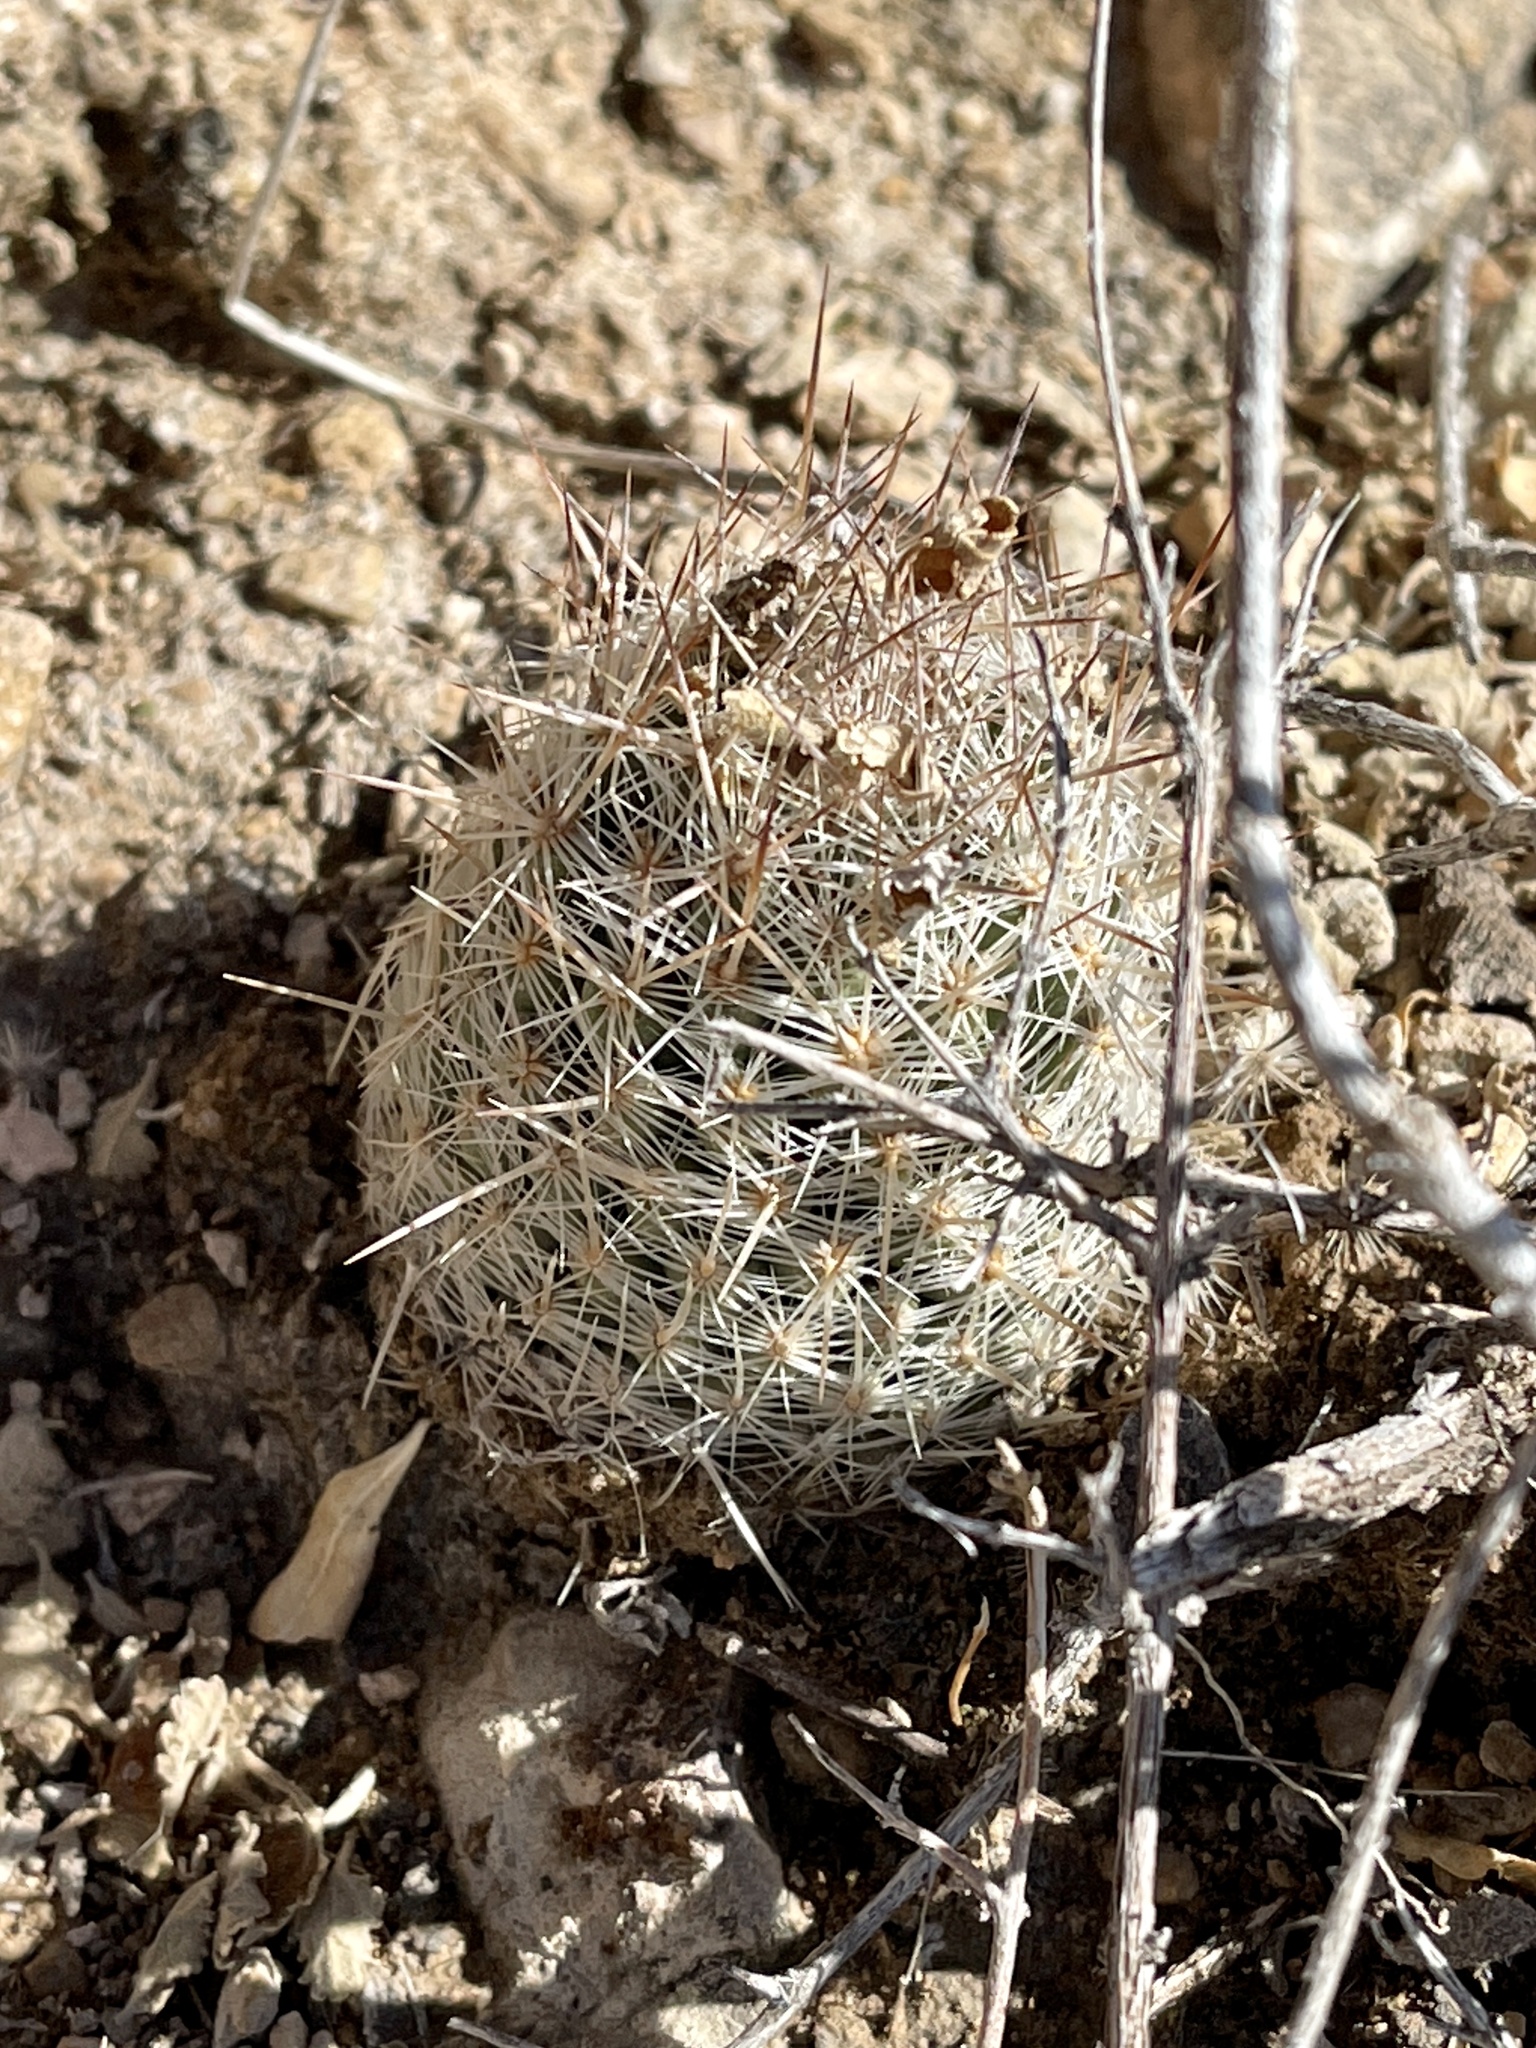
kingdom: Plantae
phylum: Tracheophyta
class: Magnoliopsida
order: Caryophyllales
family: Cactaceae
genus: Pelecyphora
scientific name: Pelecyphora tuberculosa
